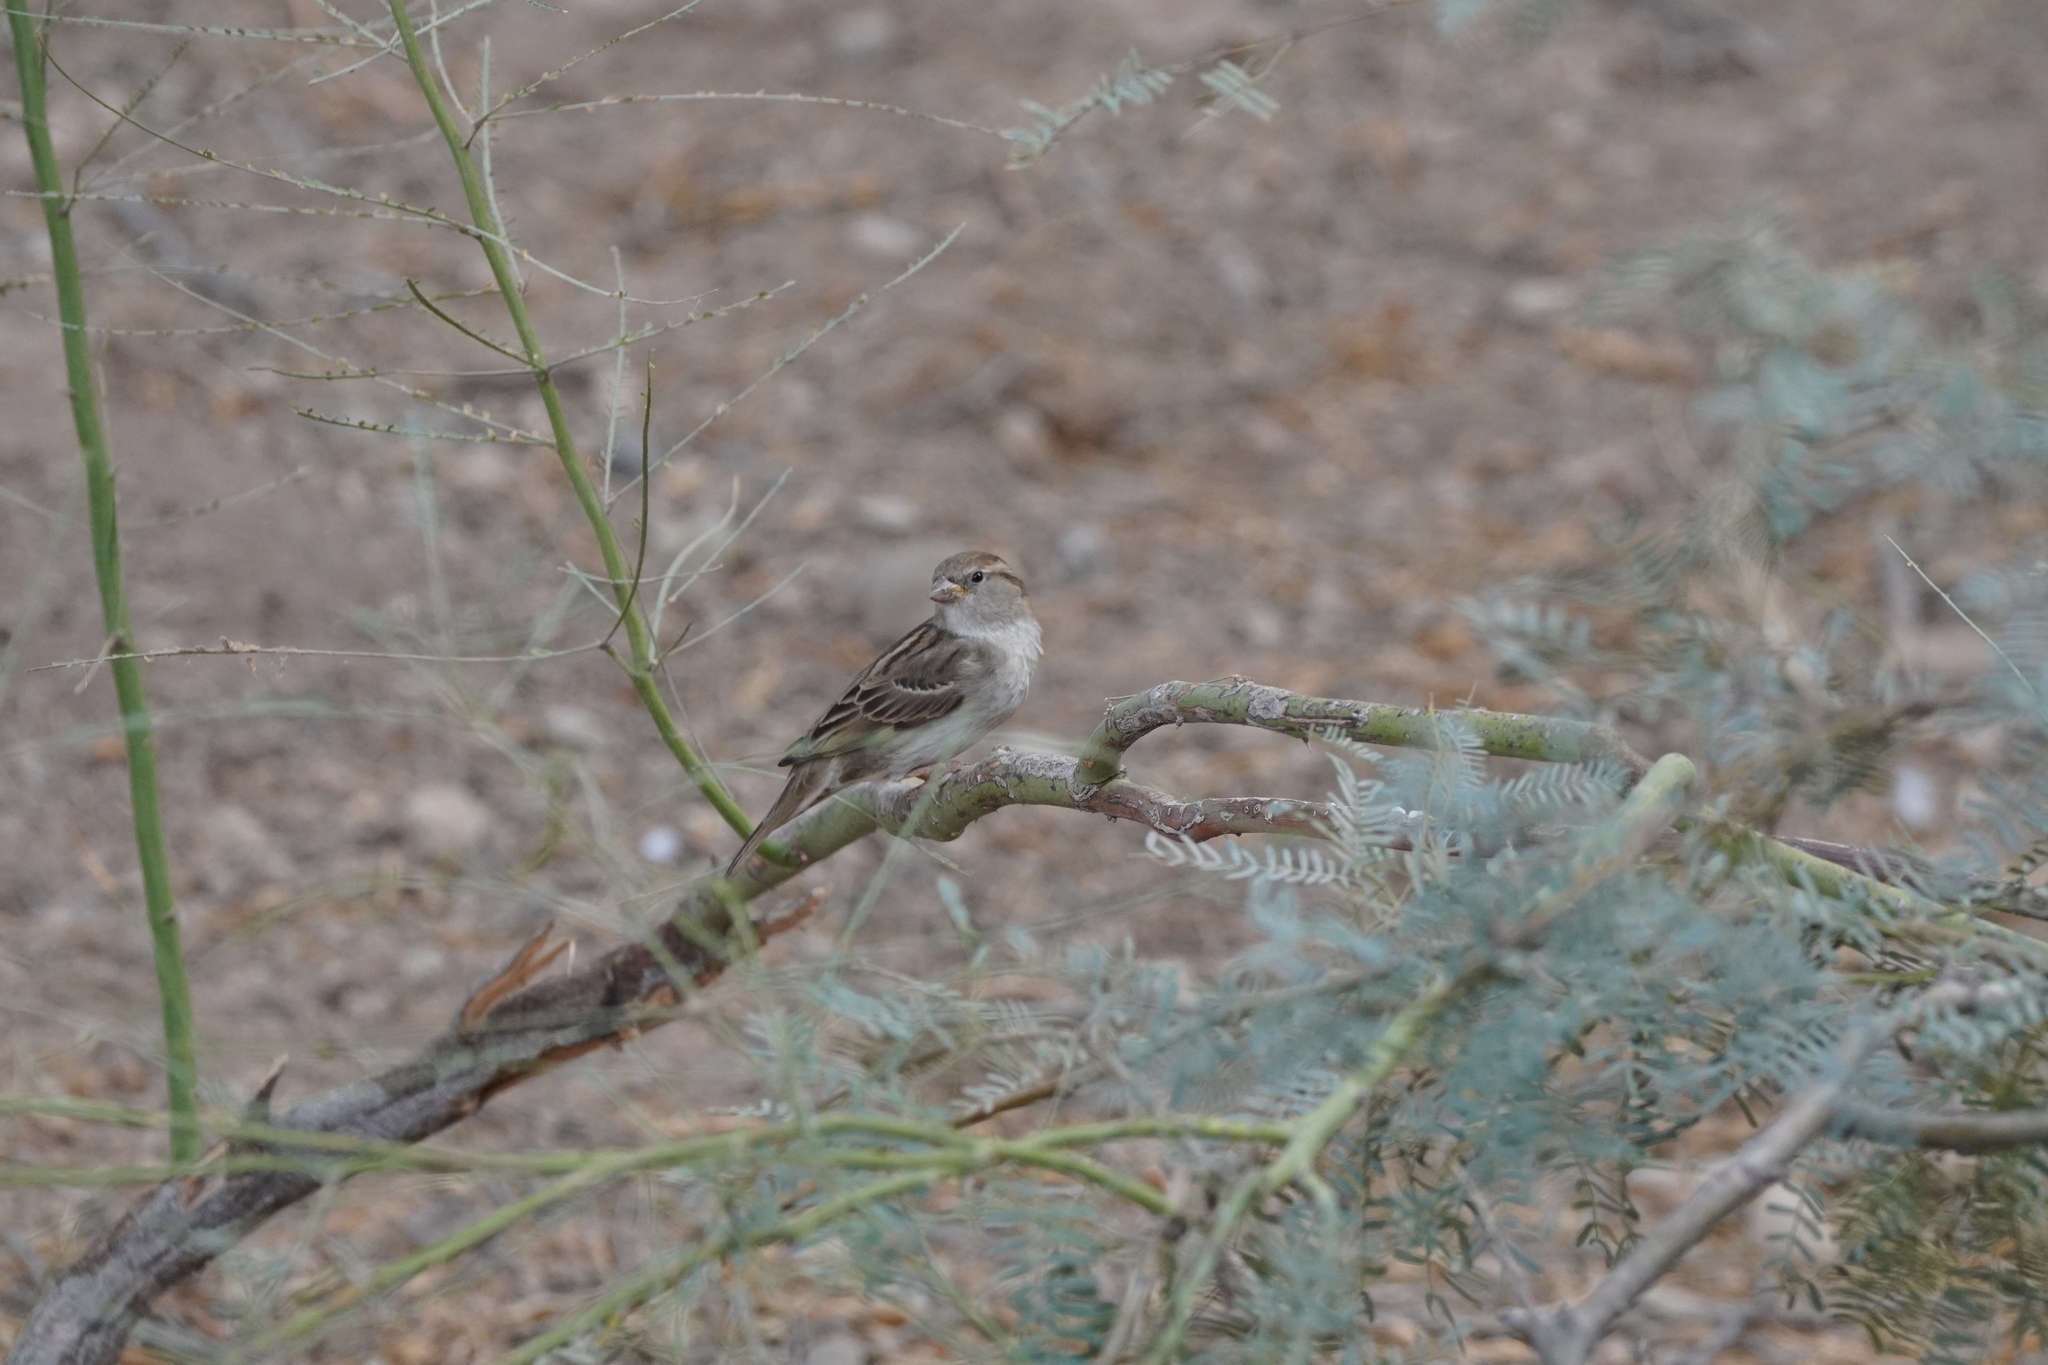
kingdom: Animalia
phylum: Chordata
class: Aves
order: Passeriformes
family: Passeridae
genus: Passer
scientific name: Passer domesticus
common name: House sparrow
